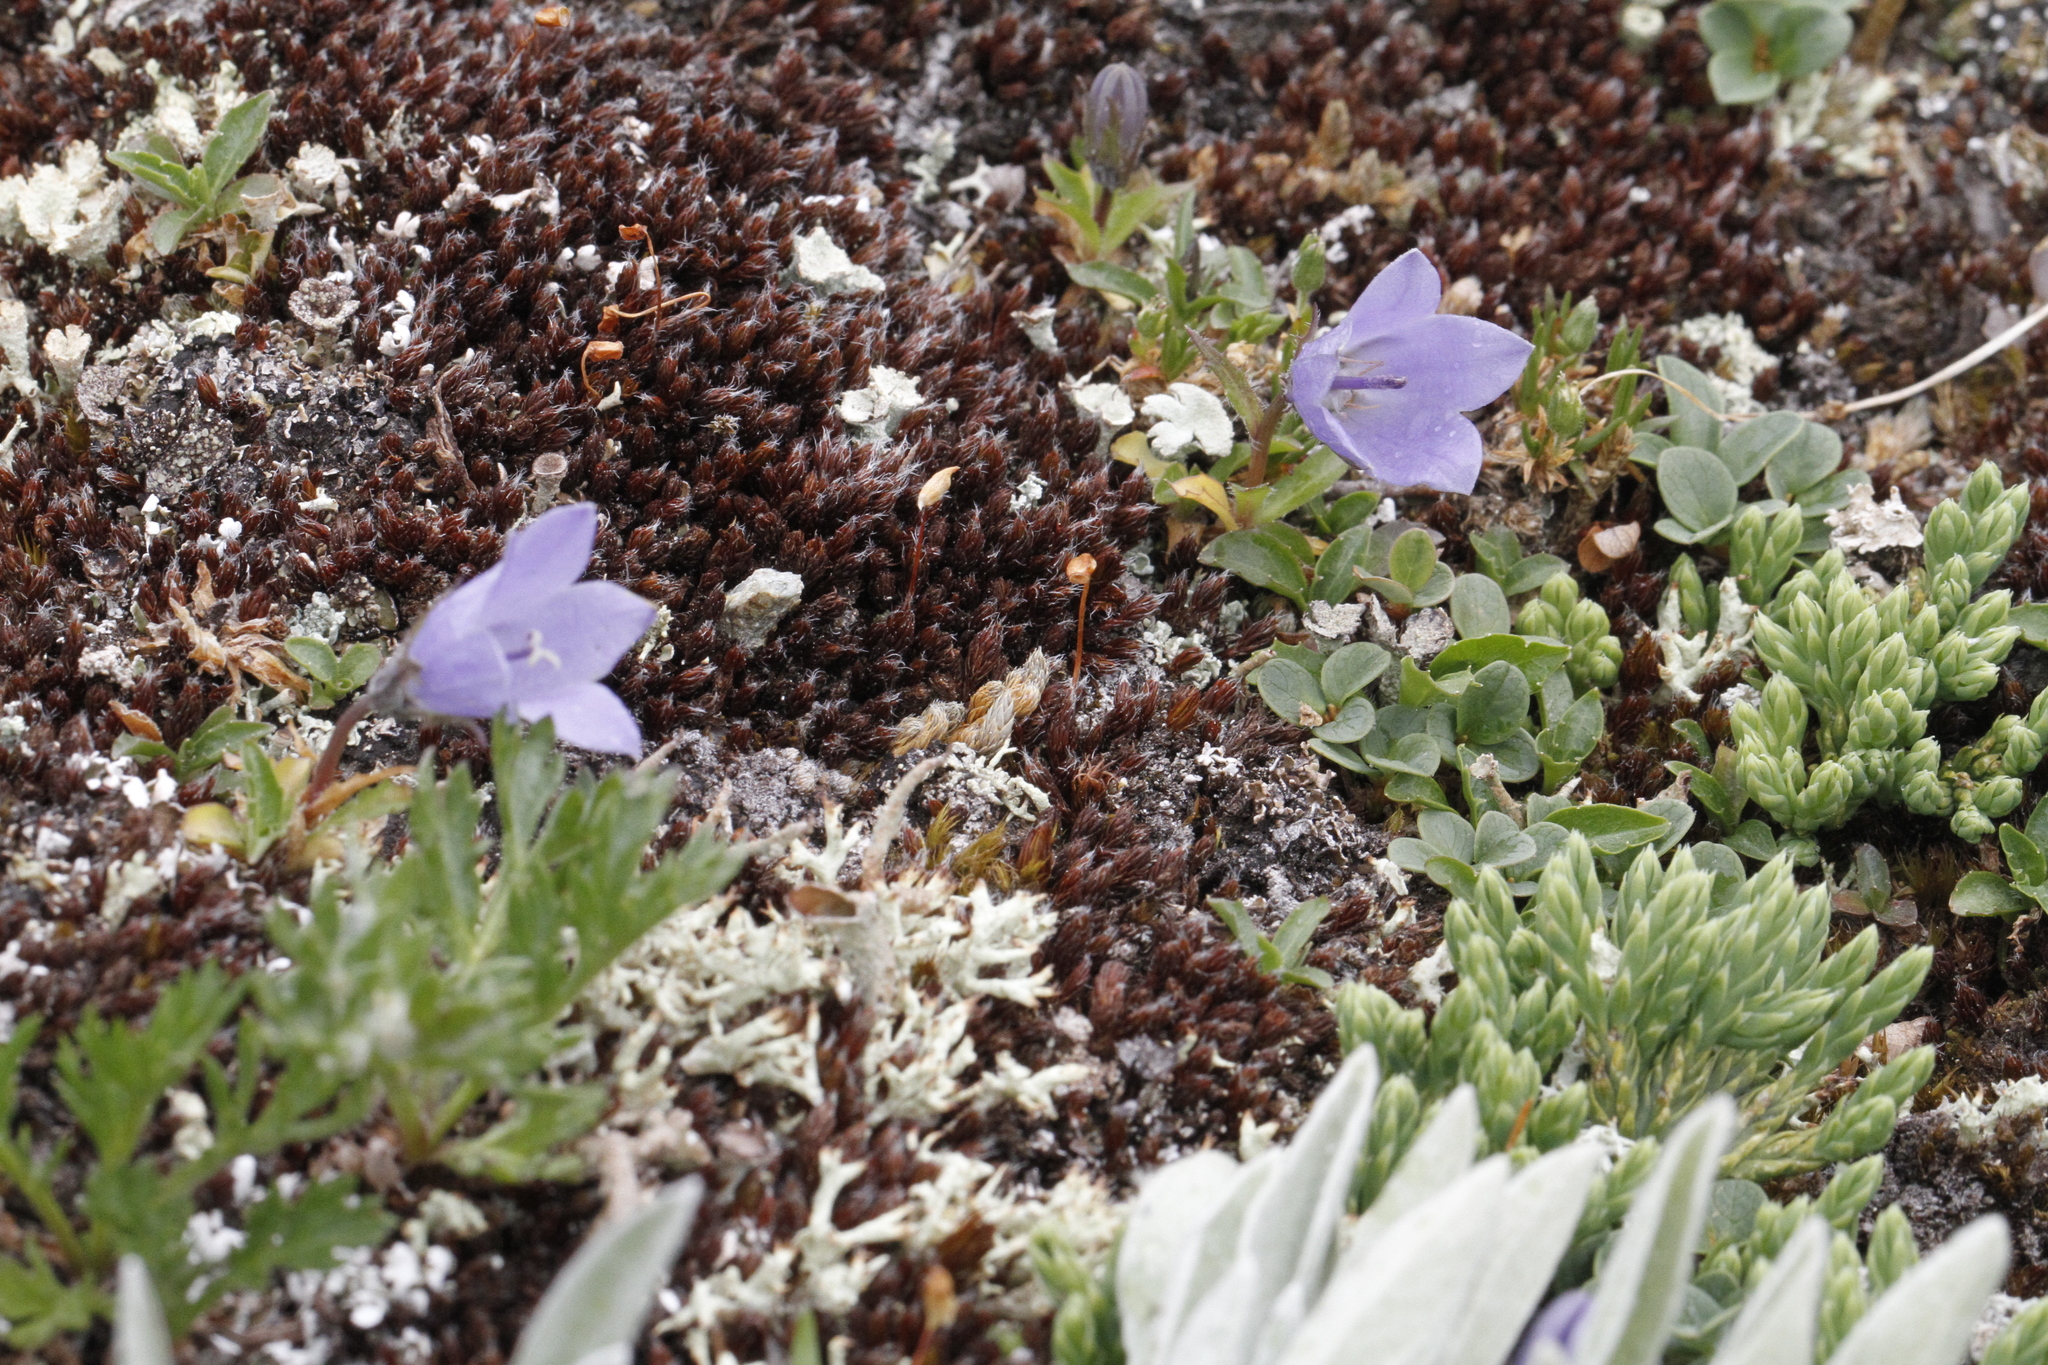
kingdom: Plantae
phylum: Tracheophyta
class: Magnoliopsida
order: Asterales
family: Campanulaceae
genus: Campanula
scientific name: Campanula lasiocarpa
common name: Mountain harebell
